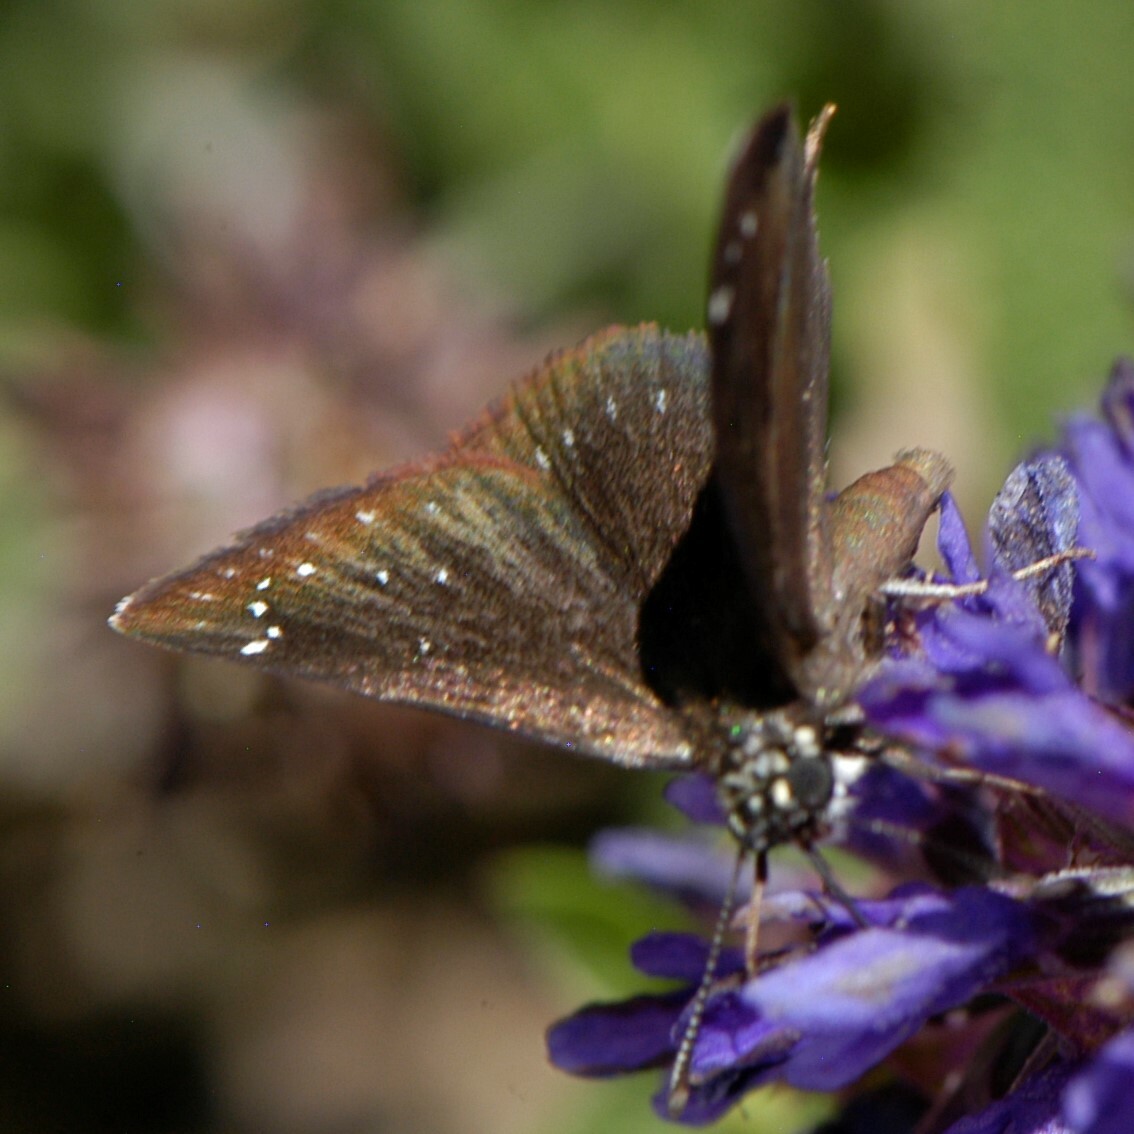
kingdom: Animalia
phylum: Arthropoda
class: Insecta
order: Lepidoptera
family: Hesperiidae
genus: Pholisora
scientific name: Pholisora catullus
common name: Common sootywing
